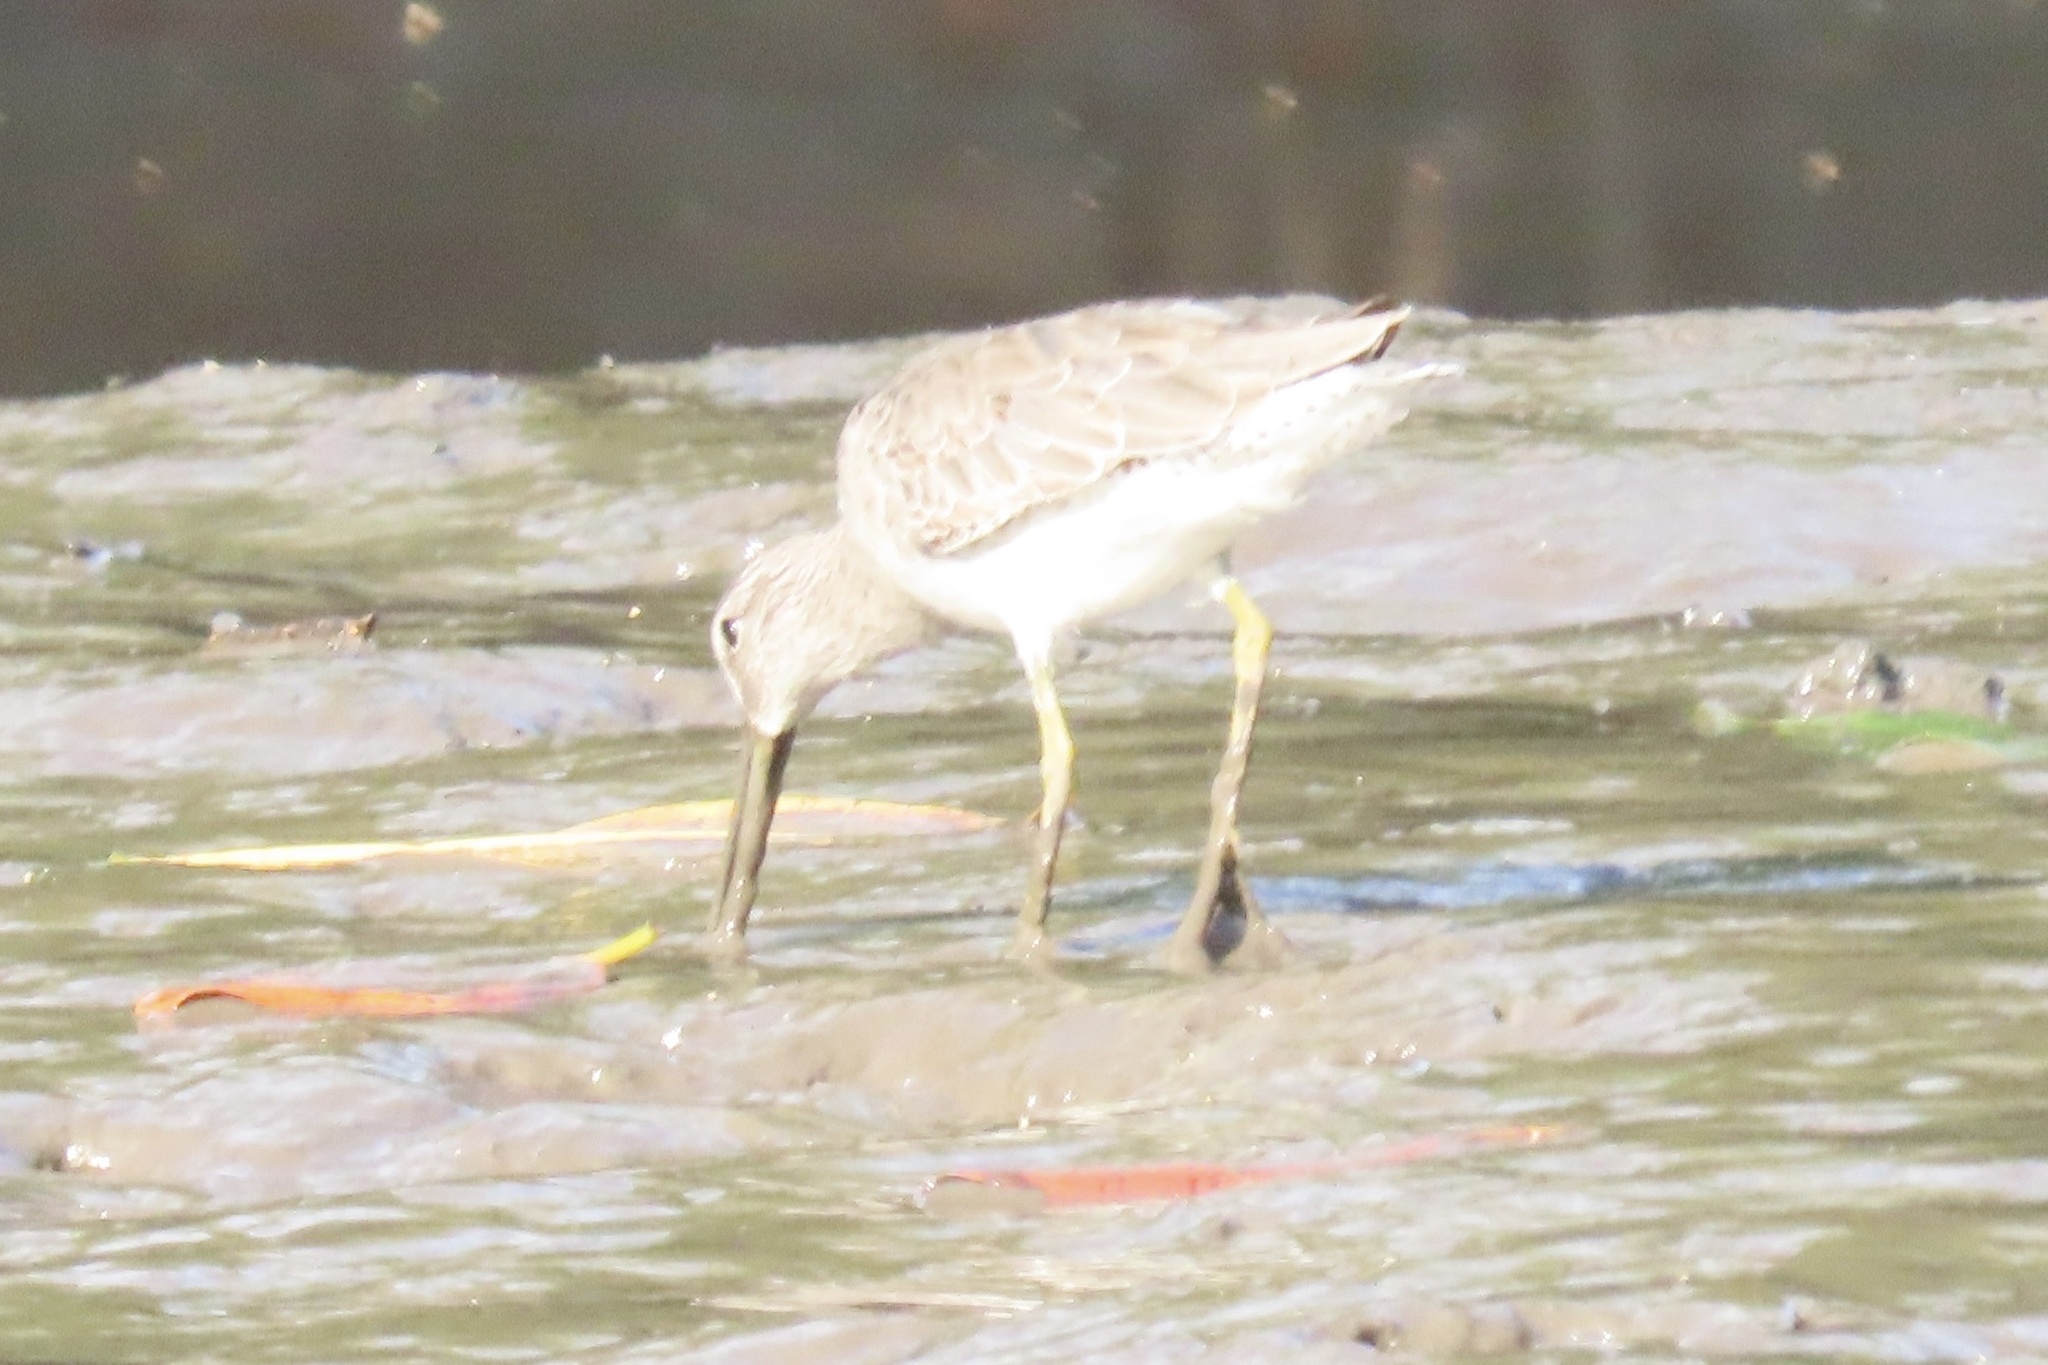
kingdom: Animalia
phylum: Chordata
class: Aves
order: Charadriiformes
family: Scolopacidae
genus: Limnodromus
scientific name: Limnodromus griseus
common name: Short-billed dowitcher
